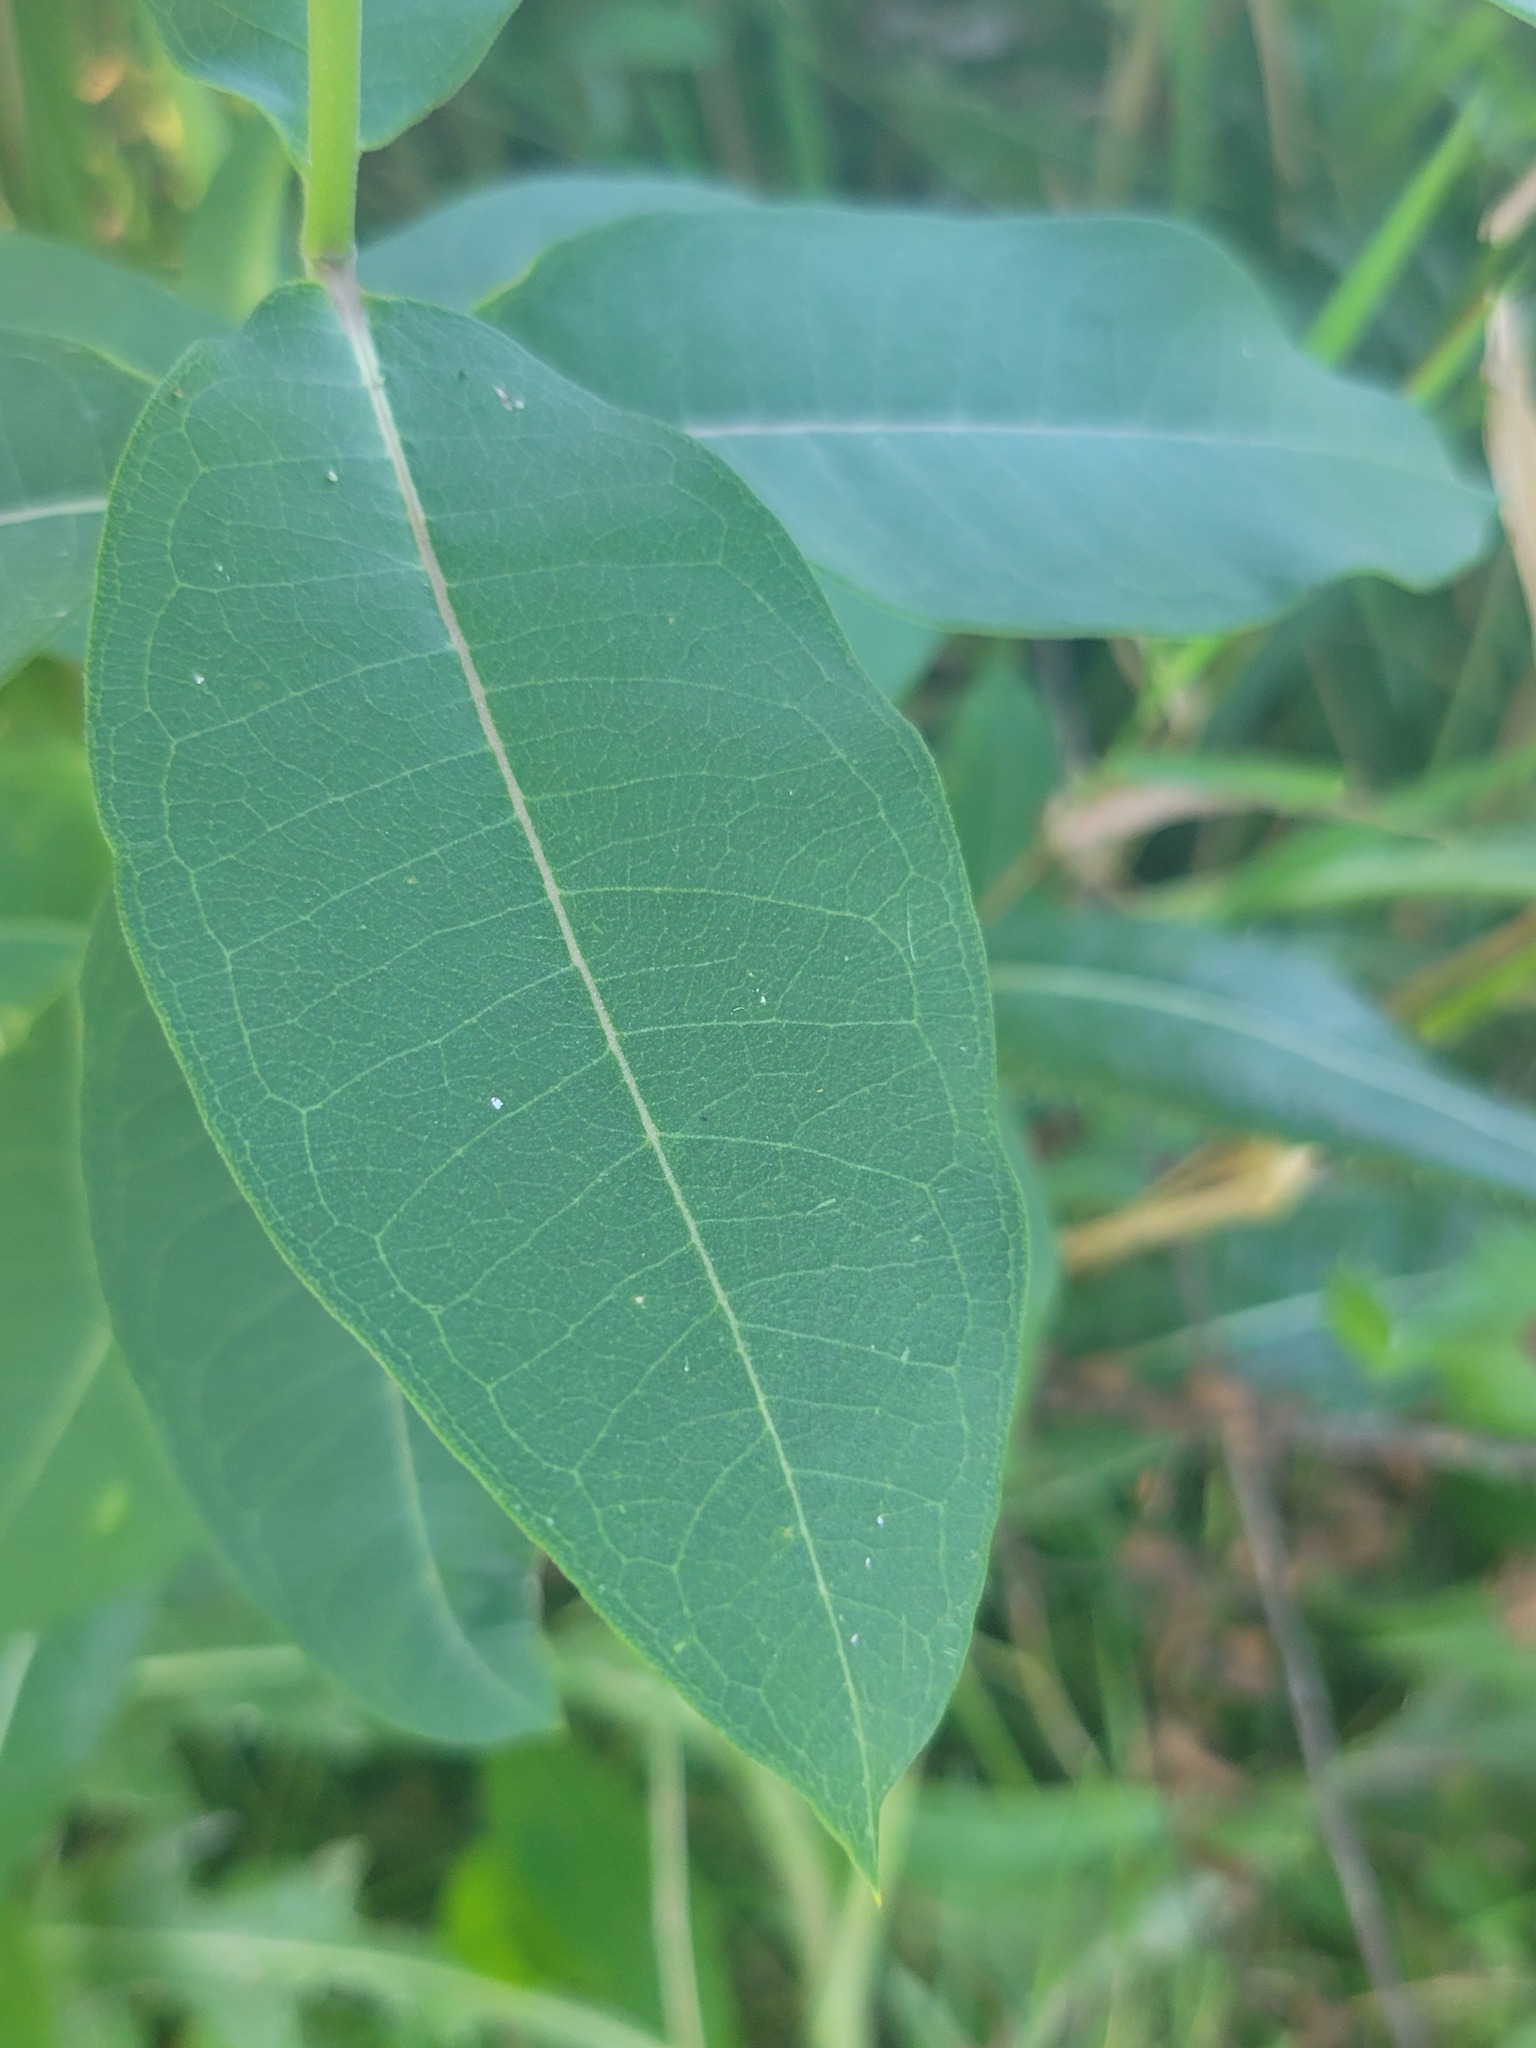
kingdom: Plantae
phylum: Tracheophyta
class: Magnoliopsida
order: Gentianales
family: Apocynaceae
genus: Asclepias
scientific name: Asclepias syriaca
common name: Common milkweed
